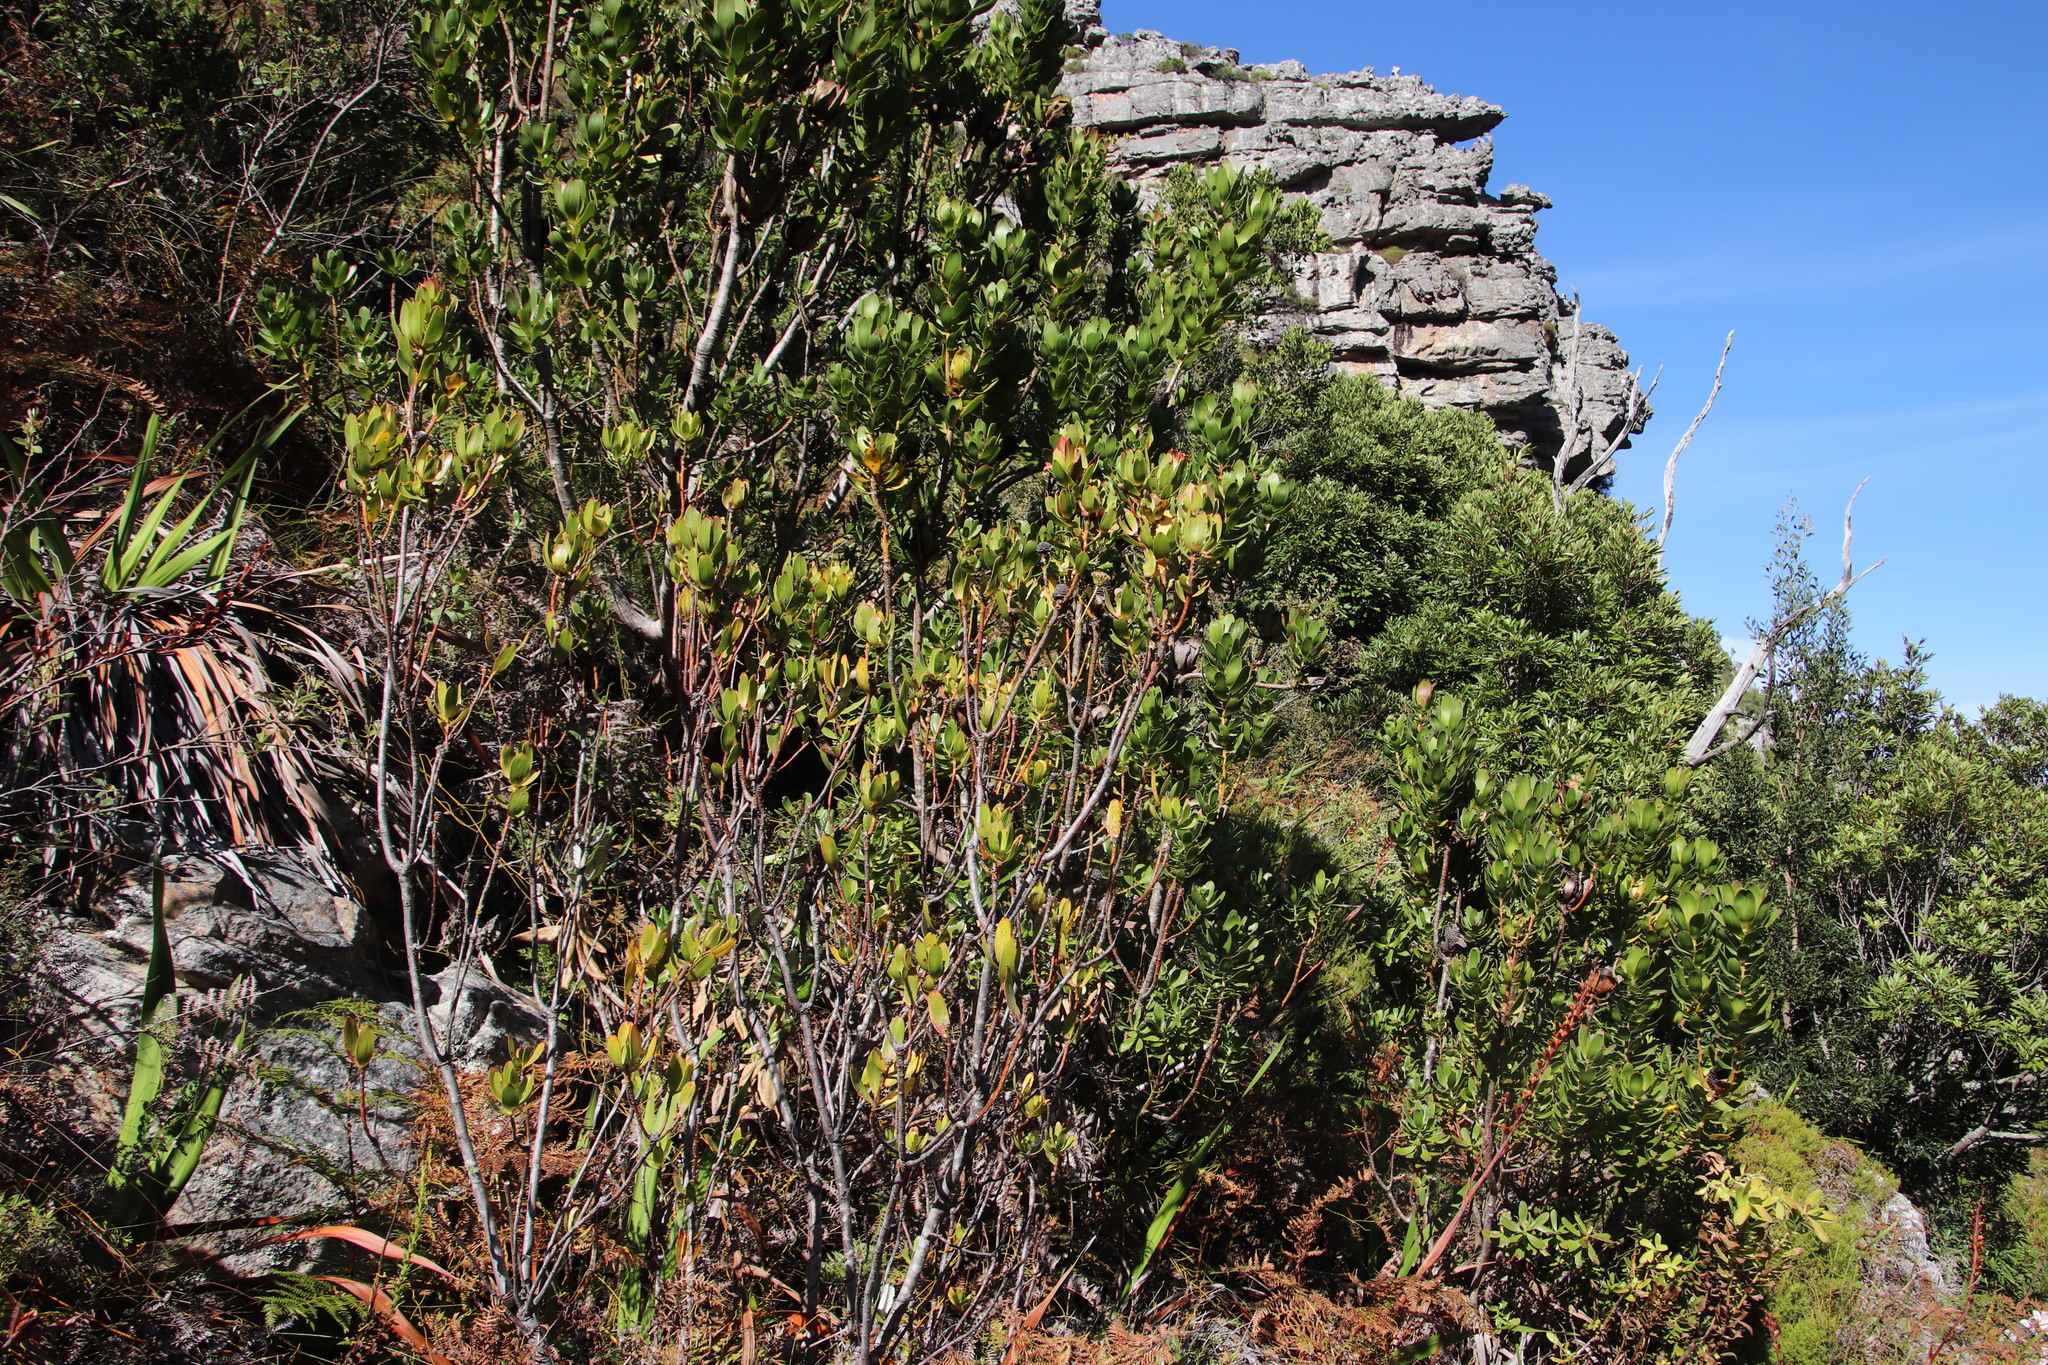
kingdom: Plantae
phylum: Tracheophyta
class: Magnoliopsida
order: Proteales
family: Proteaceae
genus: Leucadendron
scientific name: Leucadendron strobilinum
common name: Mountain rose
